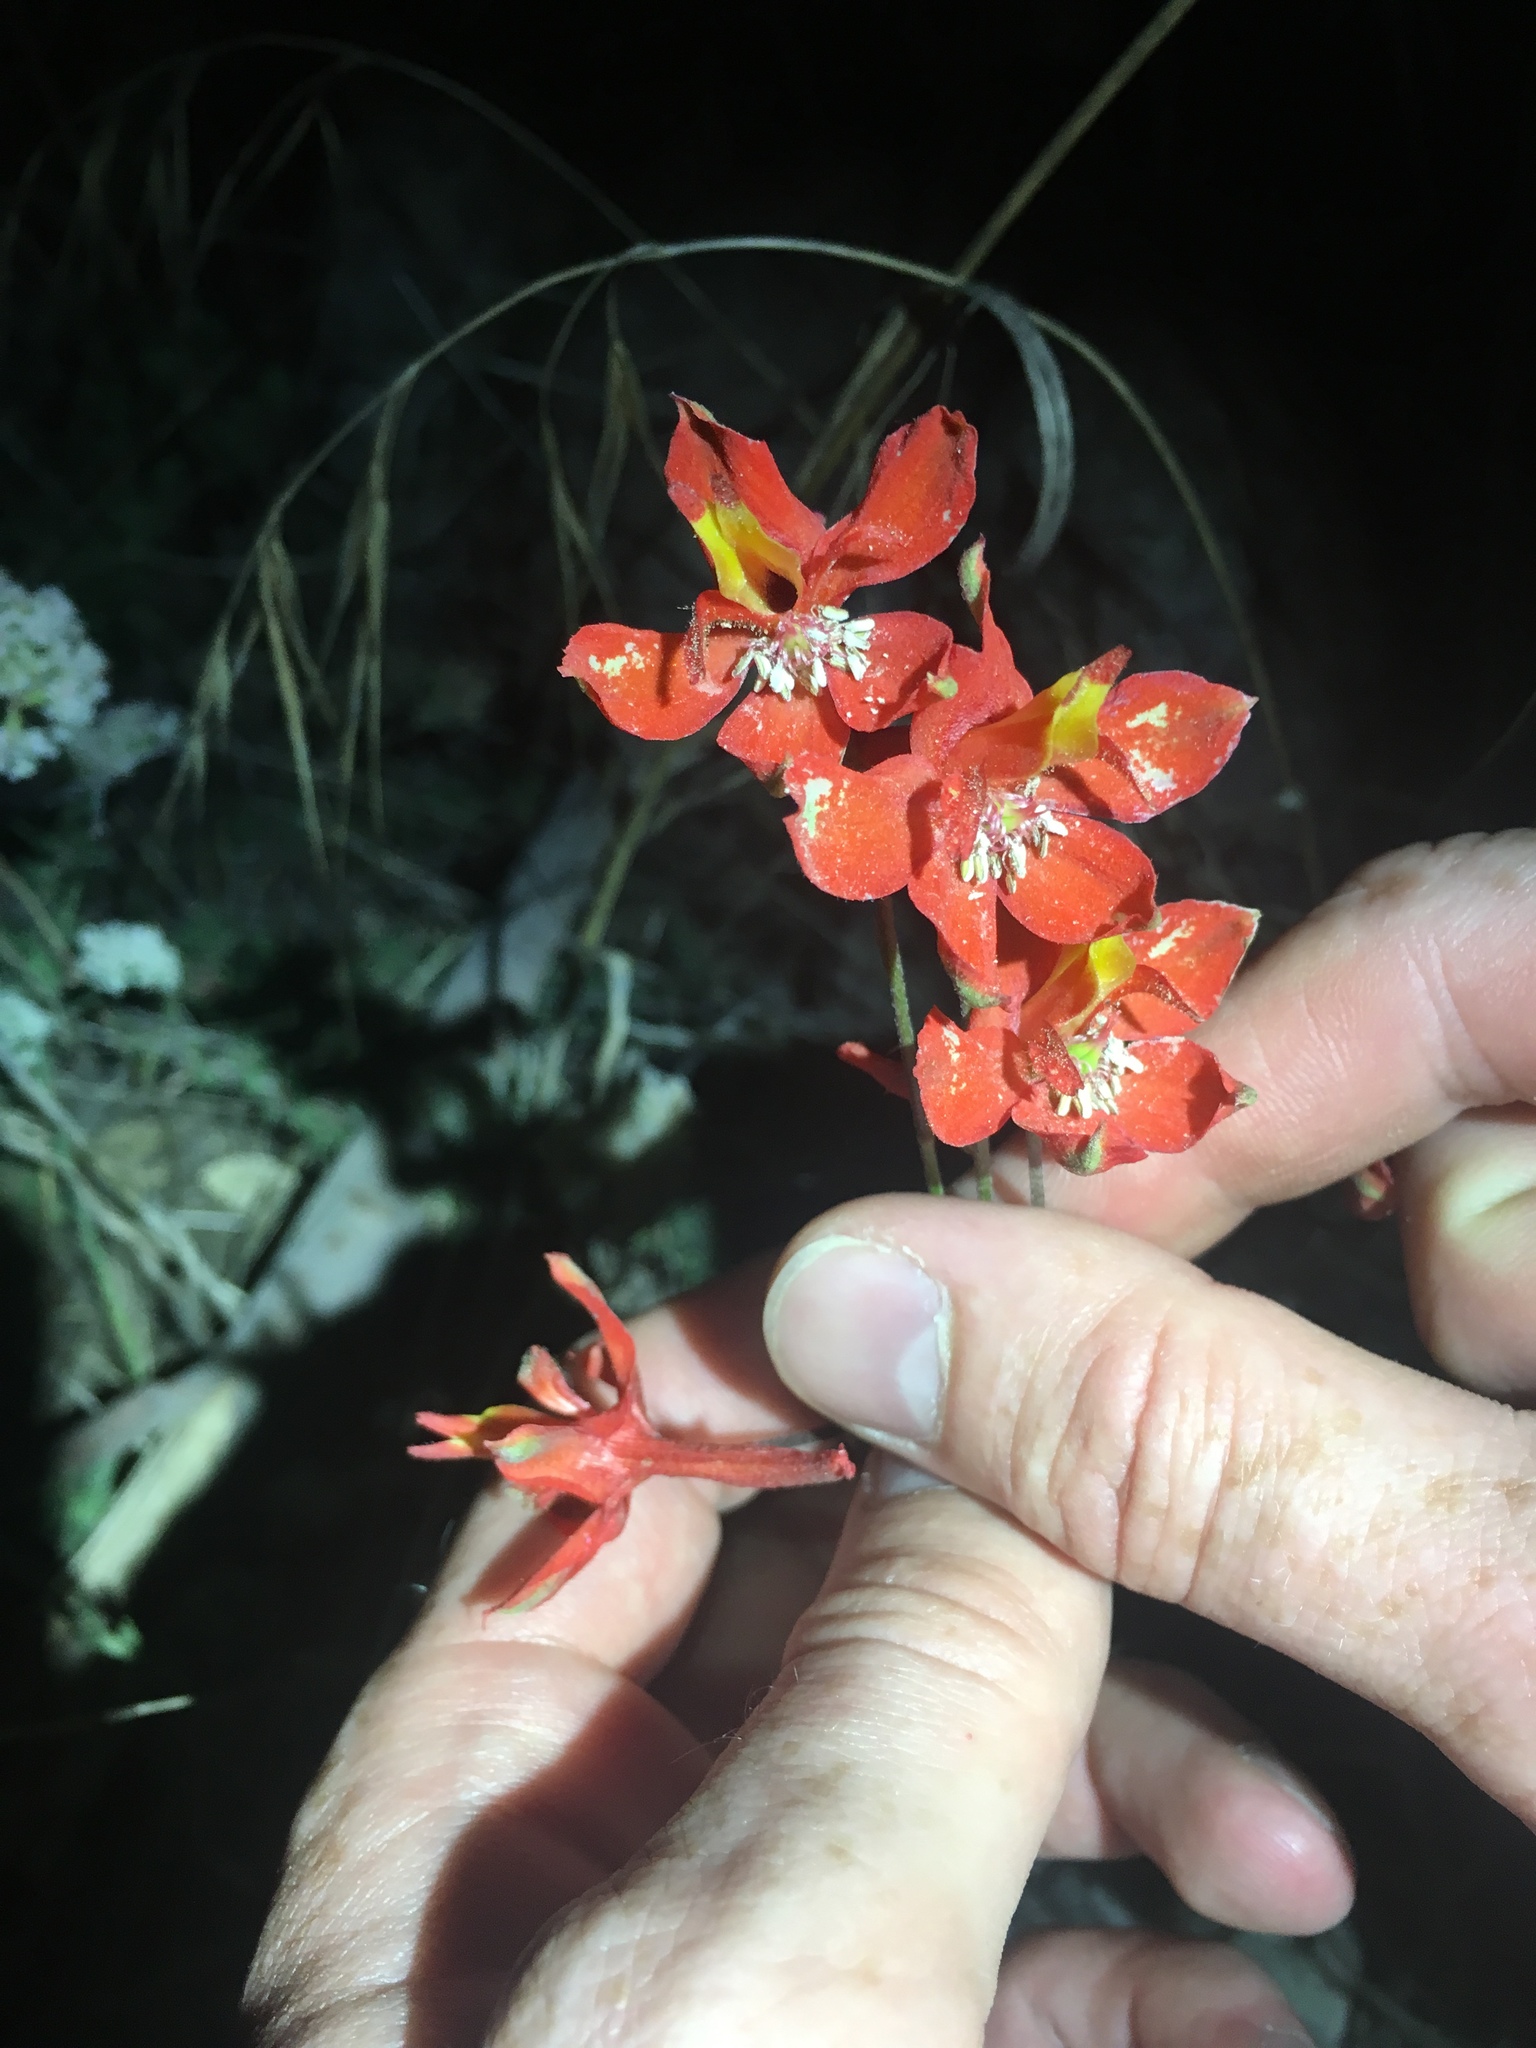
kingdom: Plantae
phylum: Tracheophyta
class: Magnoliopsida
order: Ranunculales
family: Ranunculaceae
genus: Delphinium
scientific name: Delphinium cardinale
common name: Scarlet larkspur
